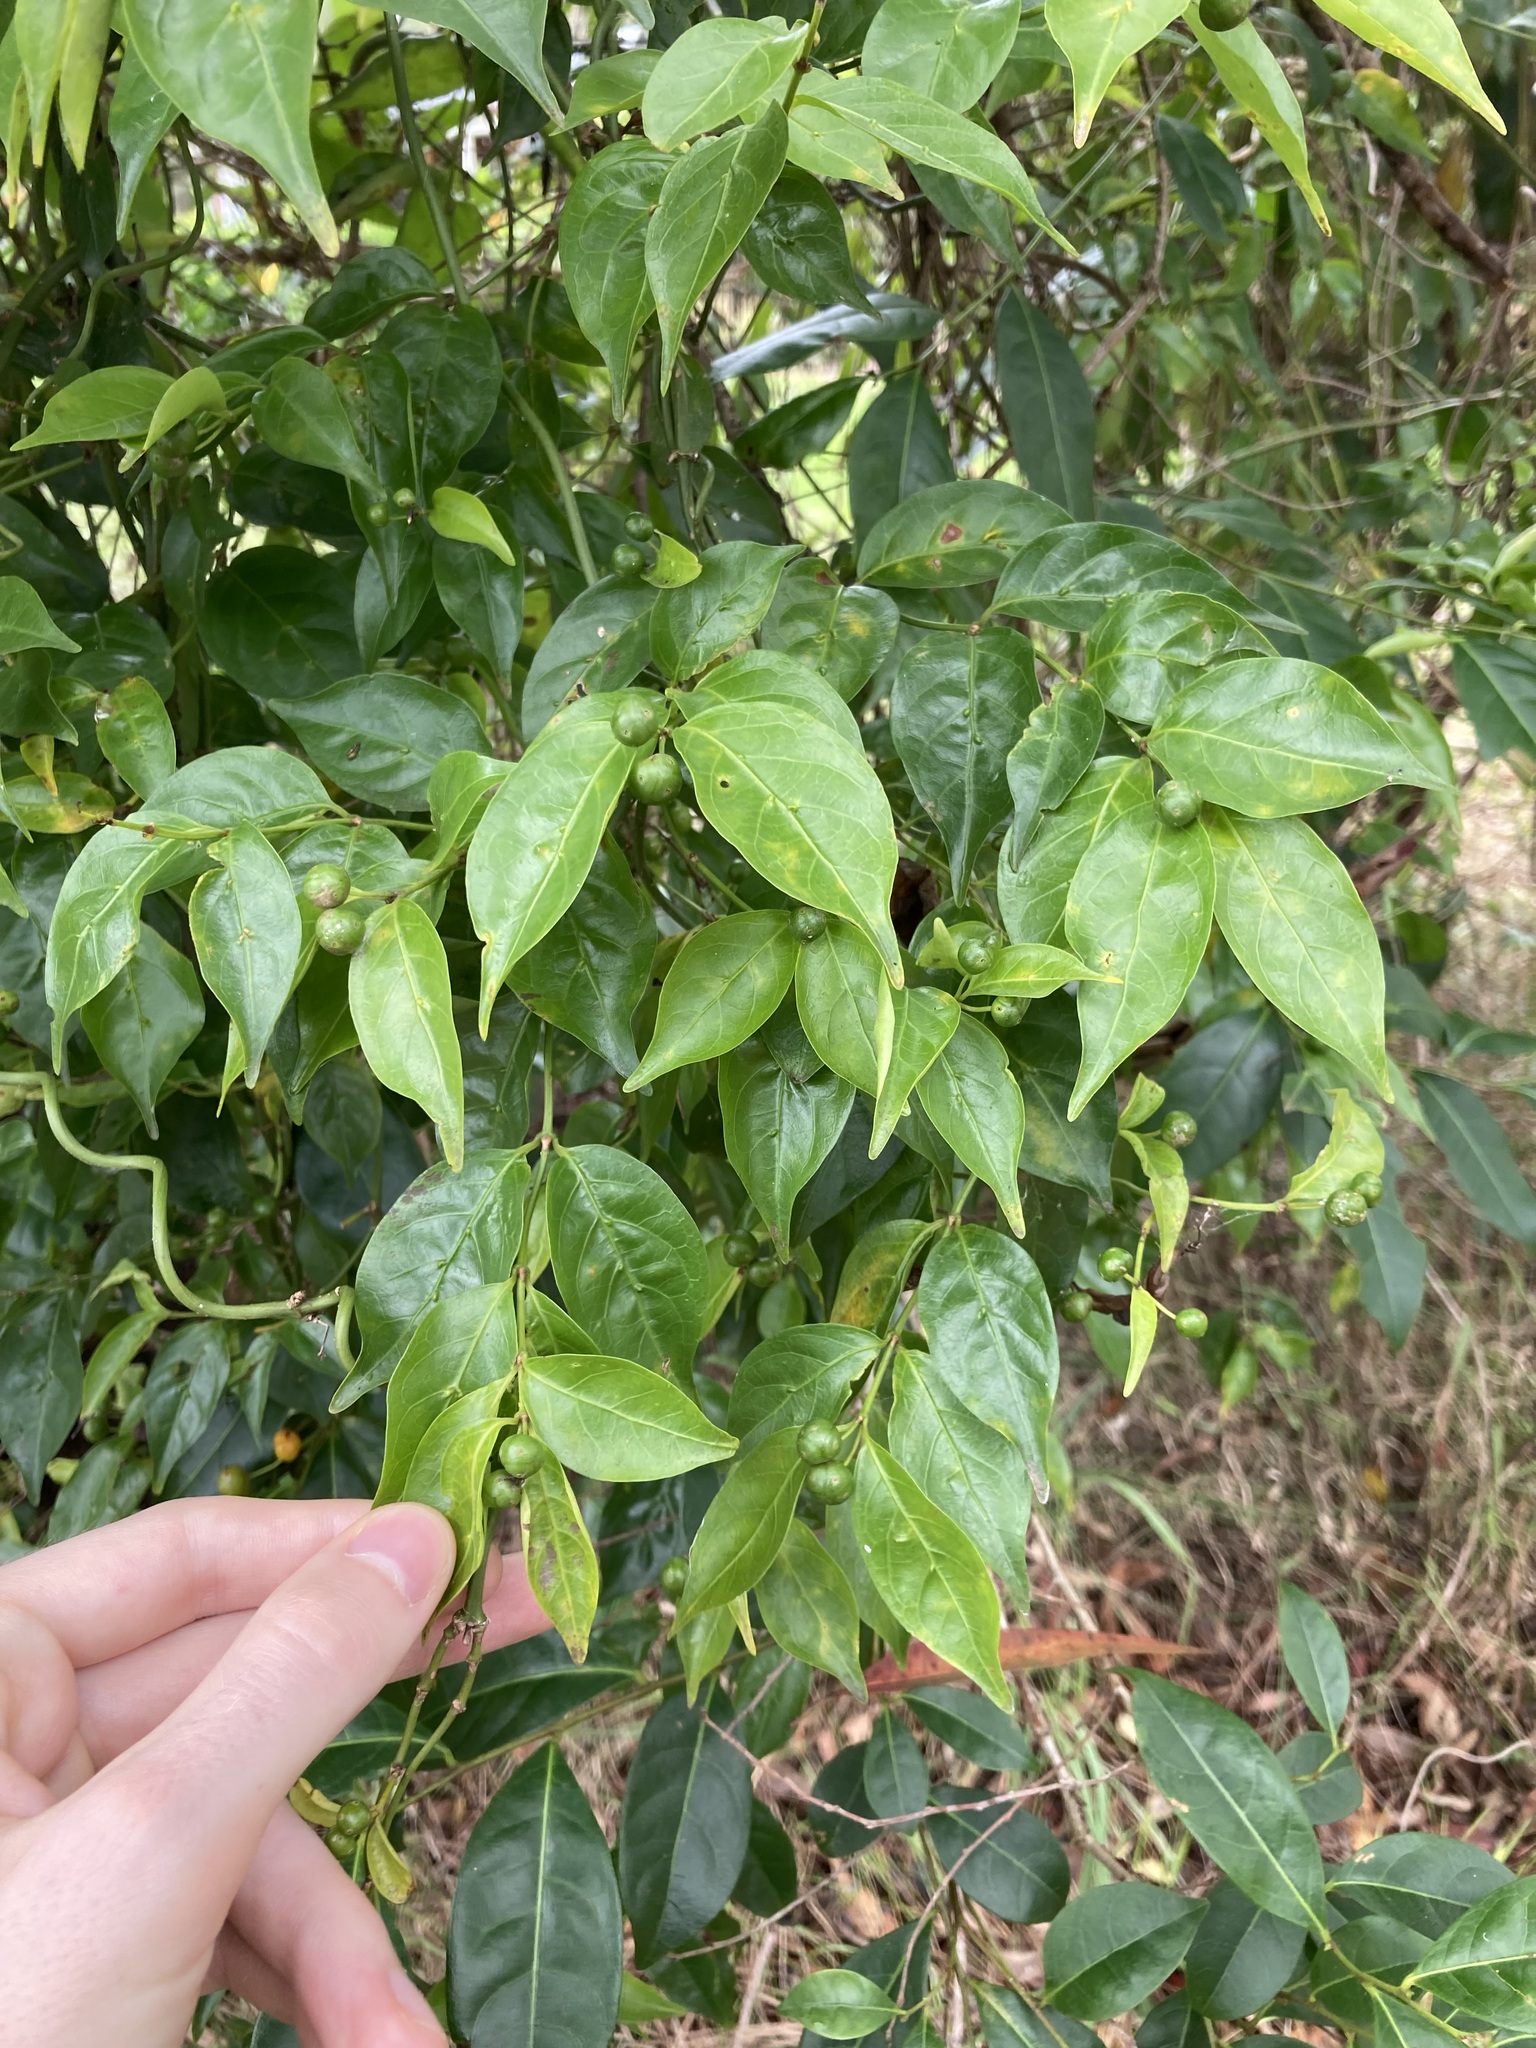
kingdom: Plantae
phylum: Tracheophyta
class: Magnoliopsida
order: Gentianales
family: Rubiaceae
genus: Gynochthodes
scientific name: Gynochthodes jasminoides
